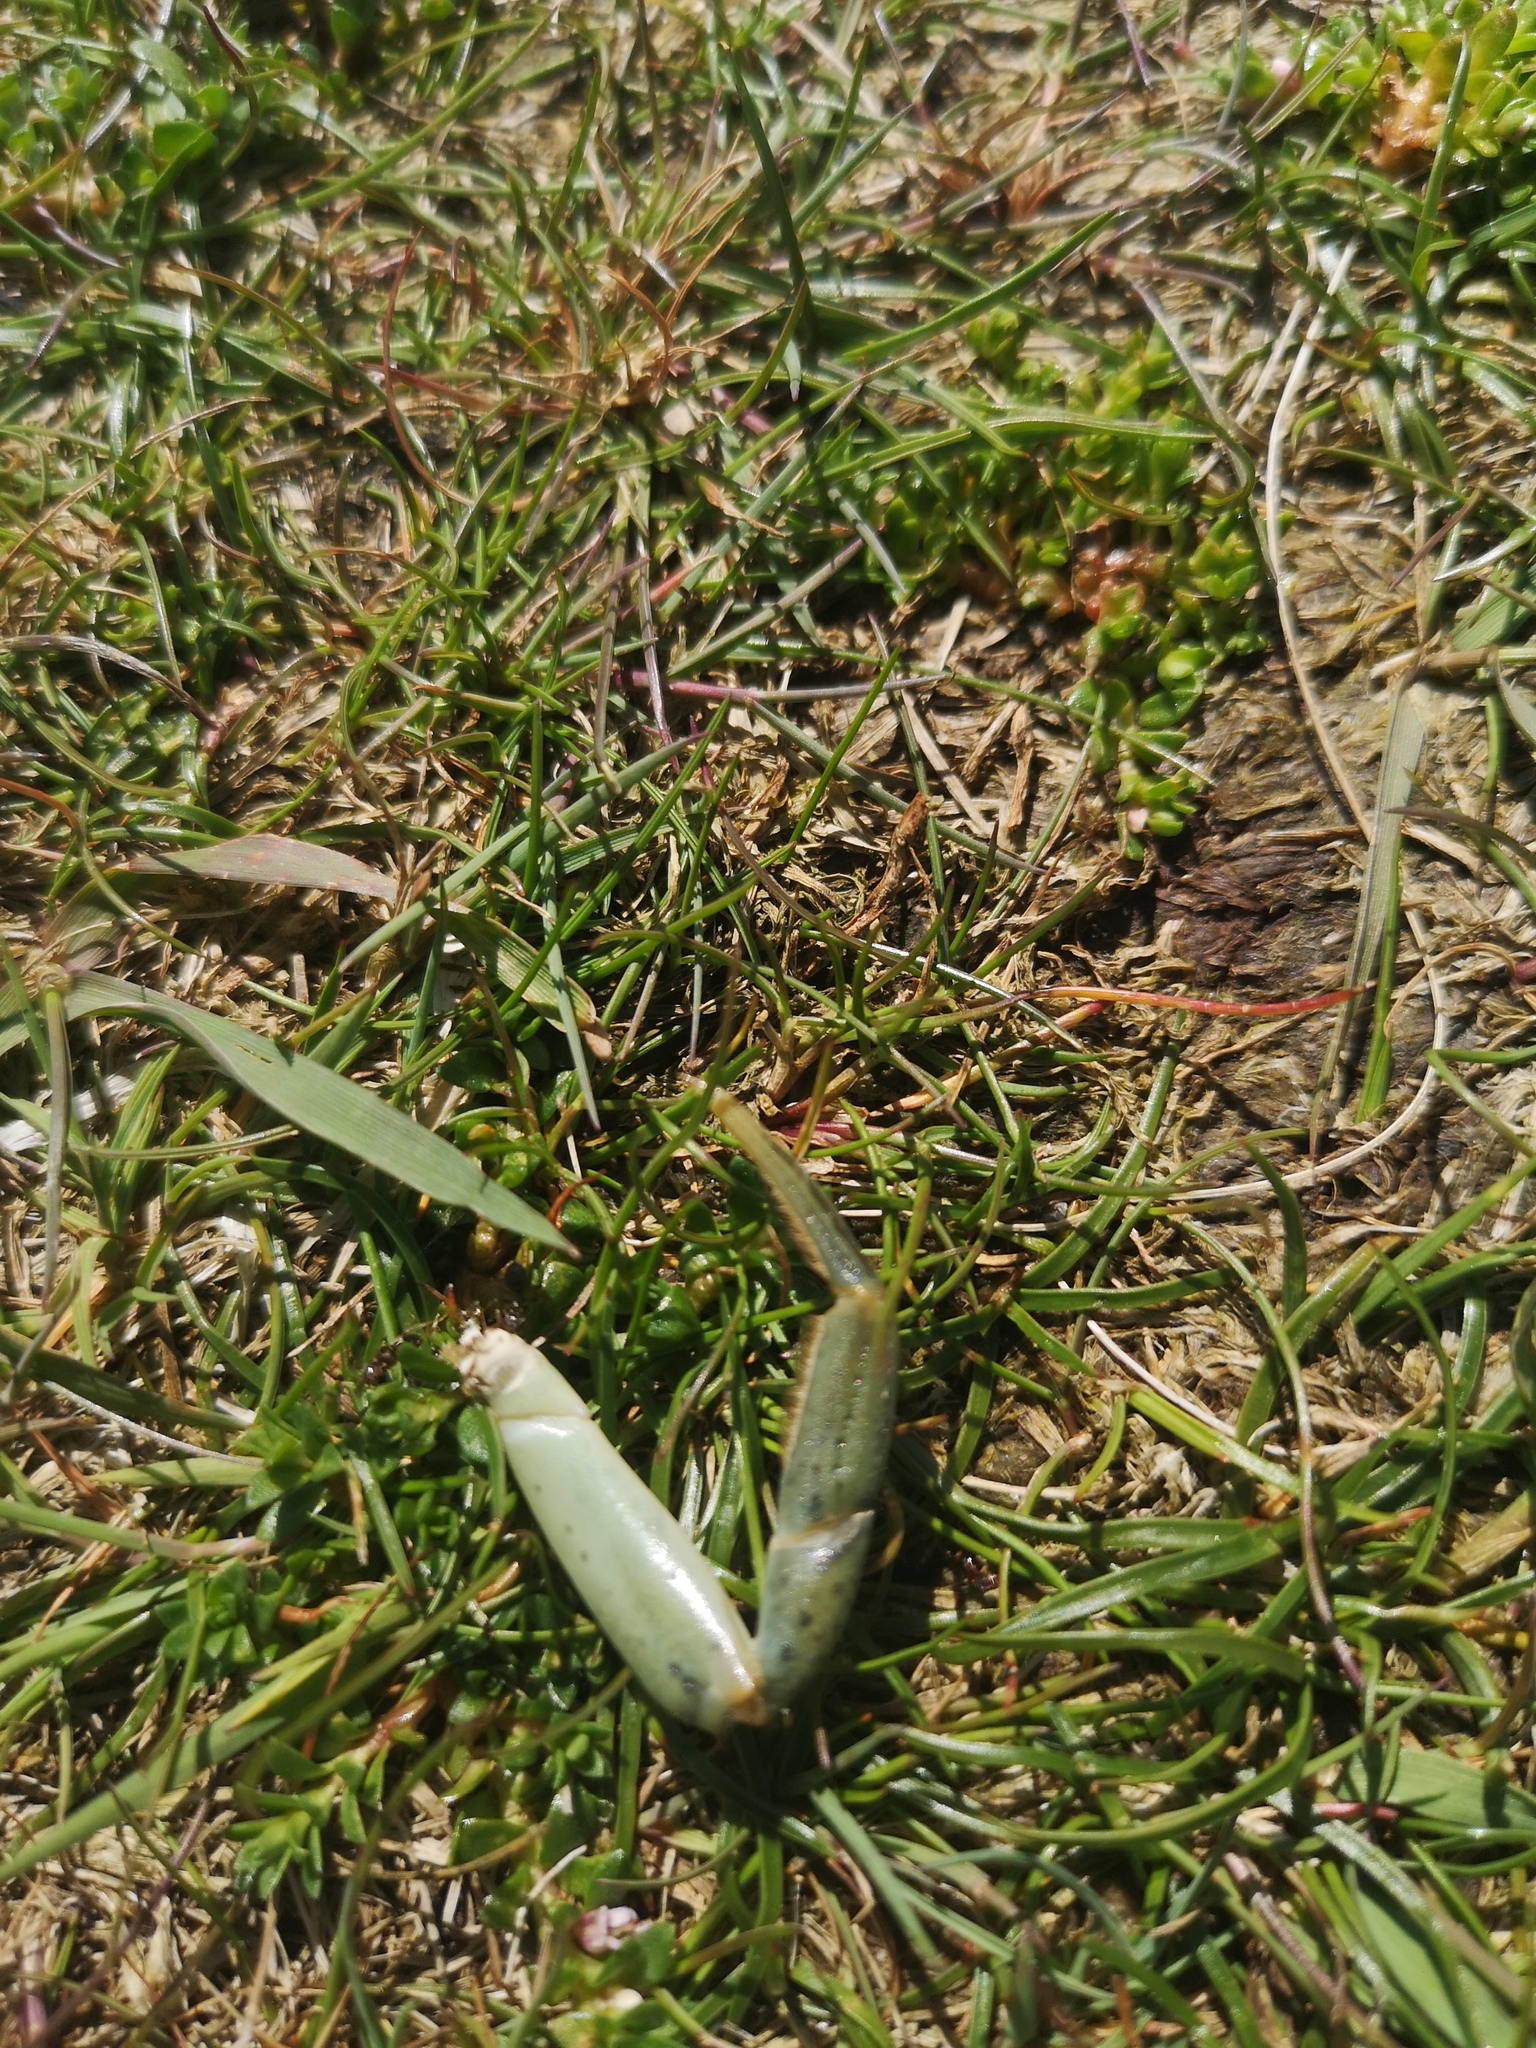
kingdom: Animalia
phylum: Arthropoda
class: Malacostraca
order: Decapoda
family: Carcinidae
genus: Carcinus
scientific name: Carcinus maenas
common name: European green crab
